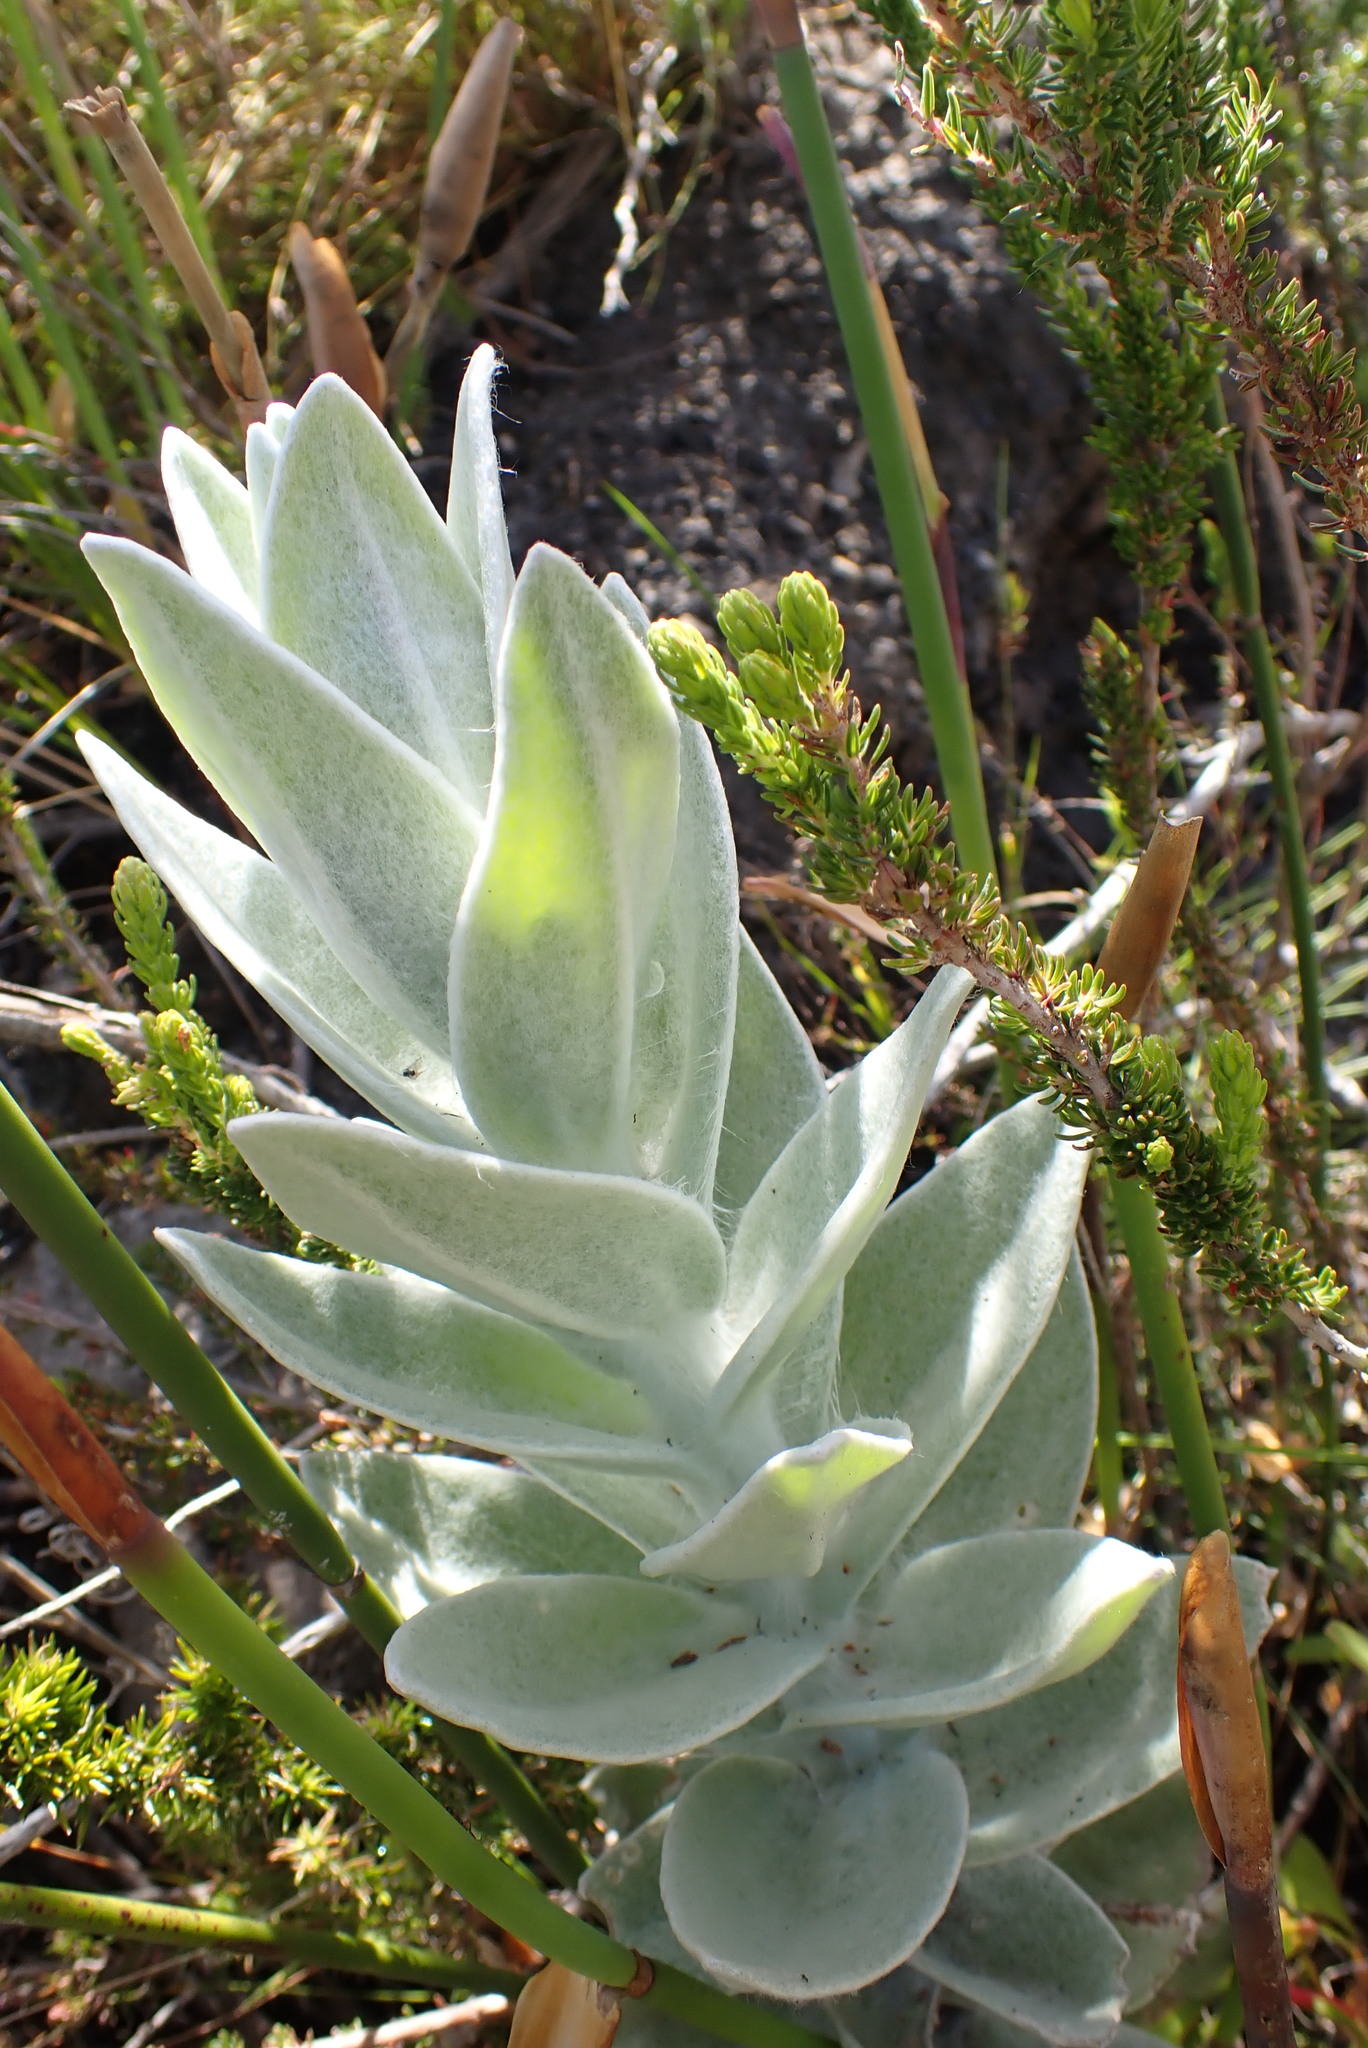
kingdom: Plantae
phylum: Tracheophyta
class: Magnoliopsida
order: Asterales
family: Asteraceae
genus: Syncarpha
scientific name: Syncarpha eximia
